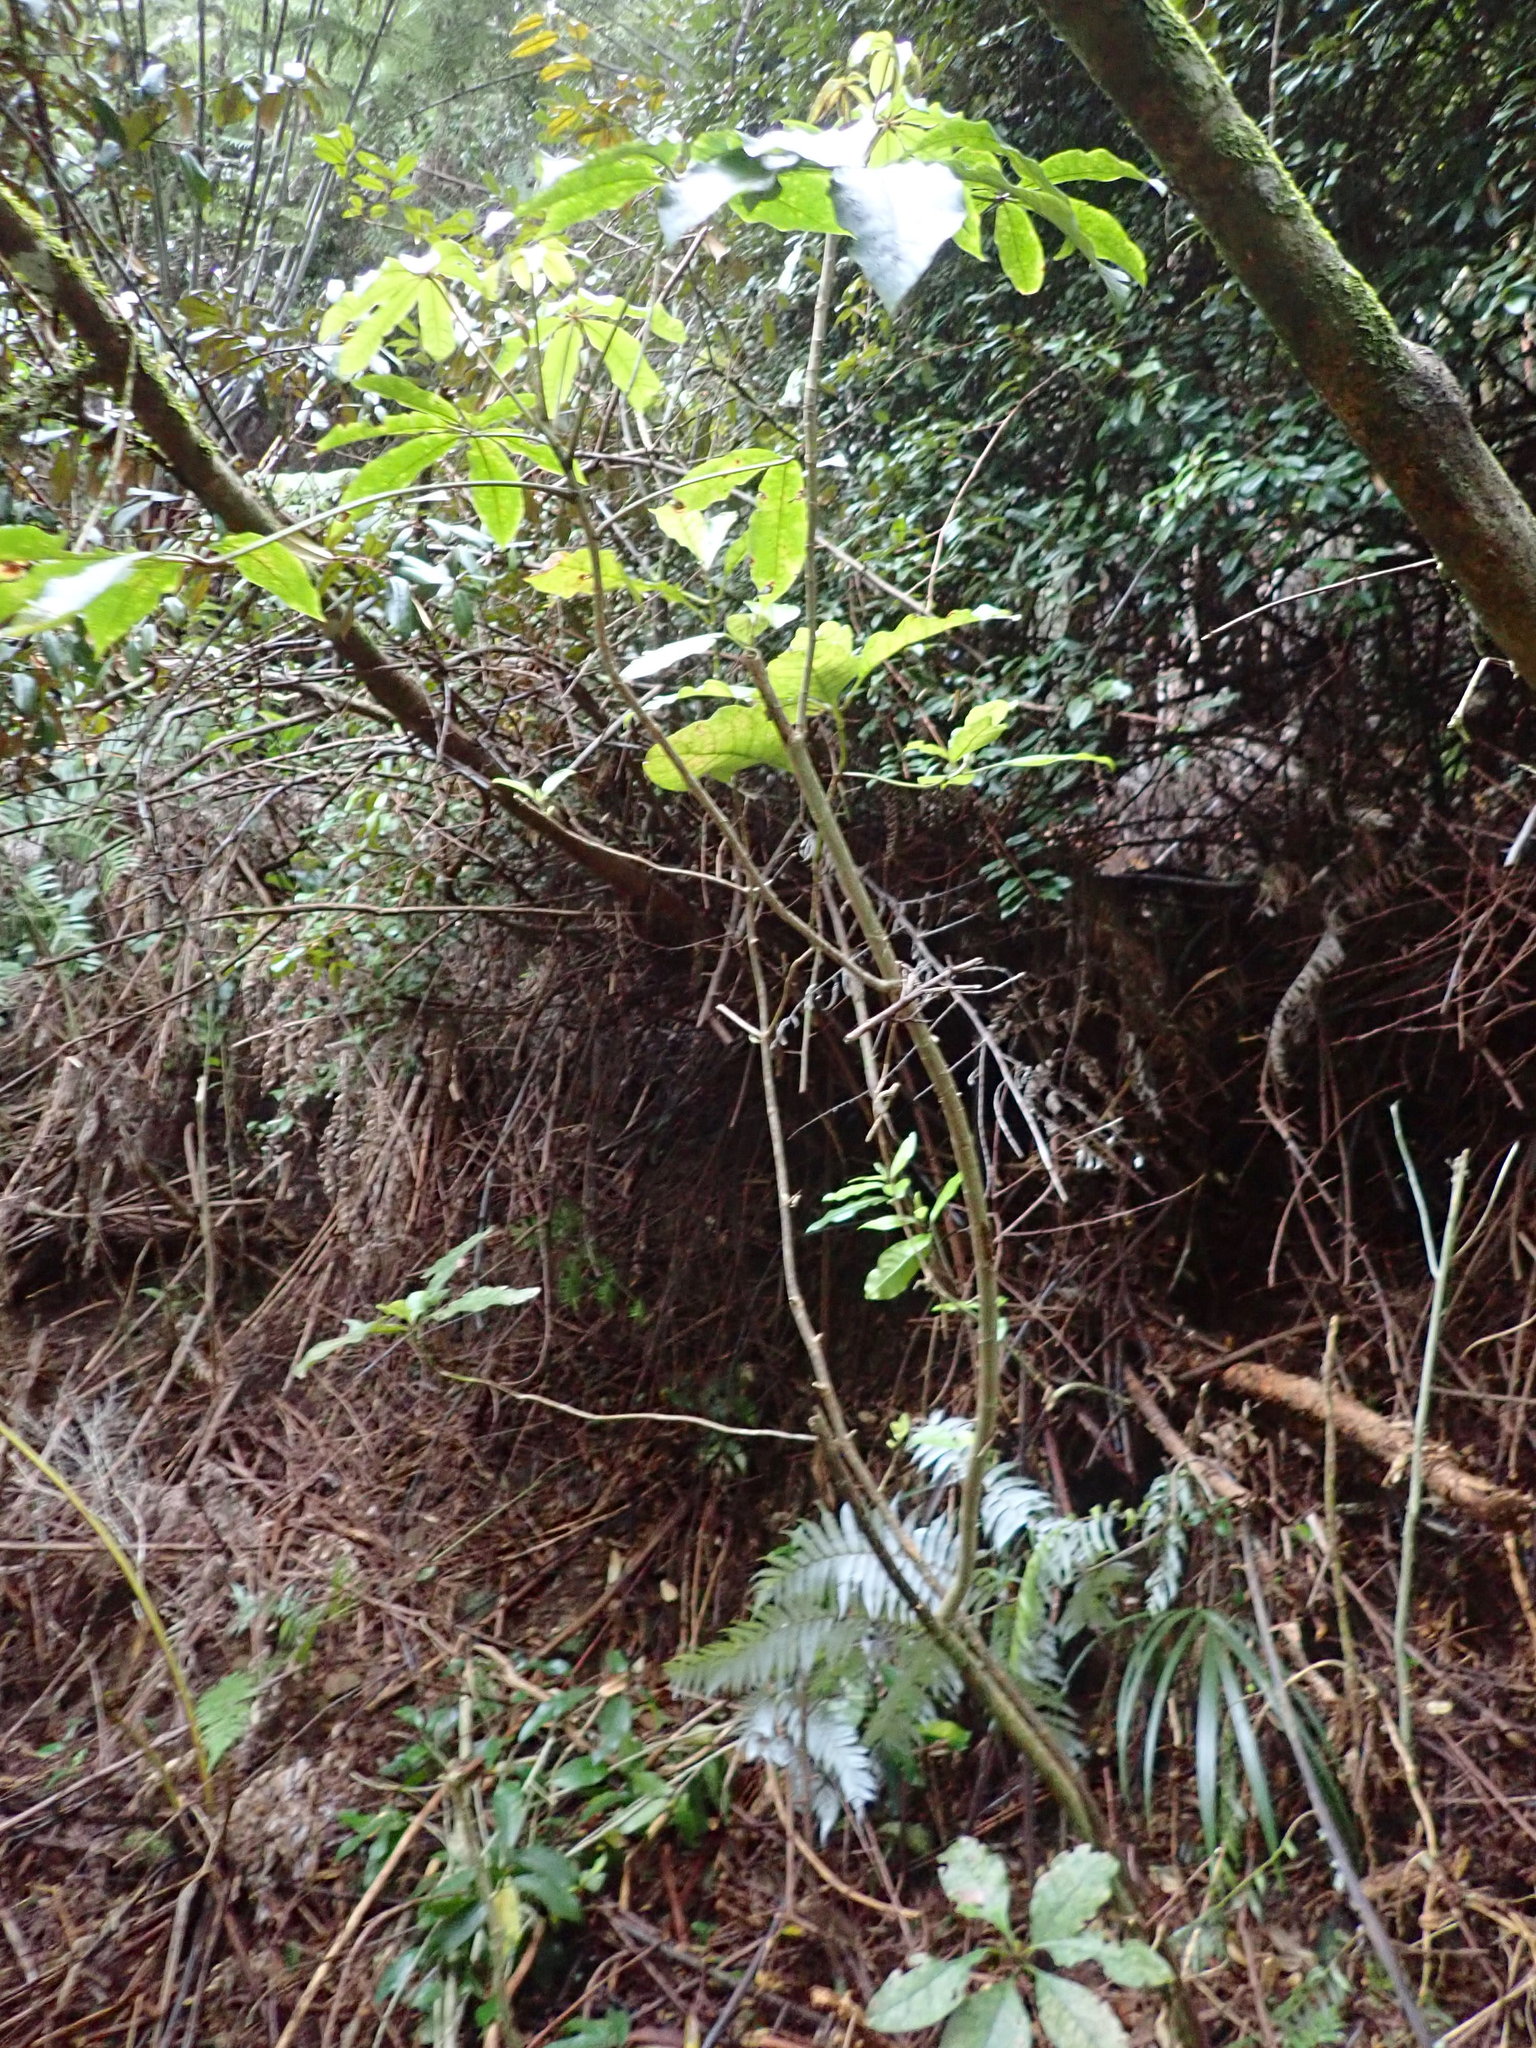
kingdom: Plantae
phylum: Tracheophyta
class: Magnoliopsida
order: Apiales
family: Araliaceae
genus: Schefflera
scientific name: Schefflera digitata
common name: Pate
